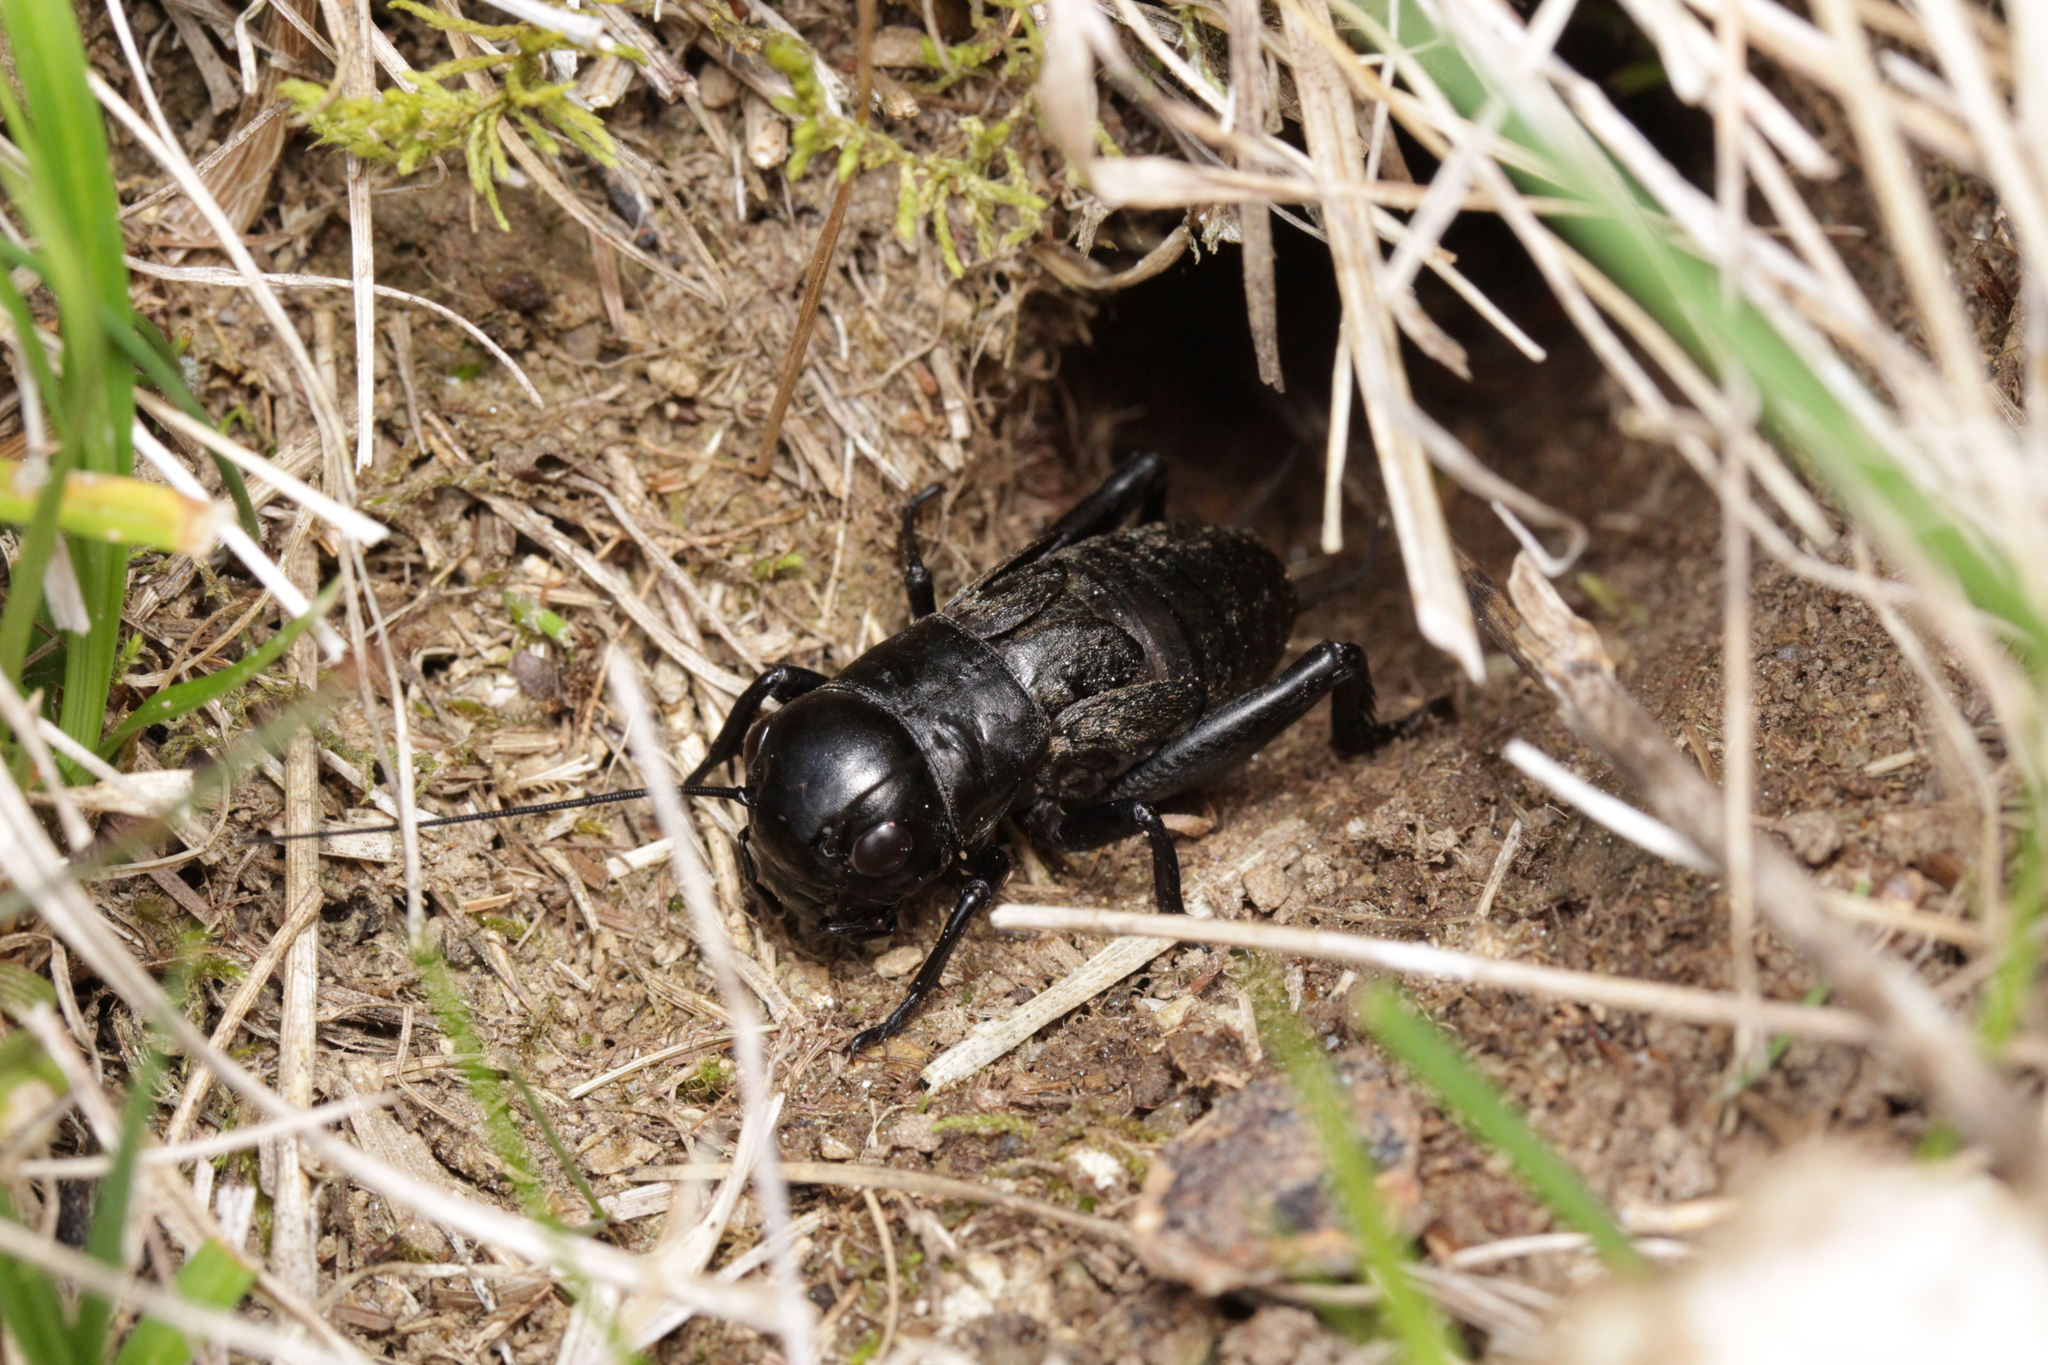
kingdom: Animalia
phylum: Arthropoda
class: Insecta
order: Orthoptera
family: Gryllidae
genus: Gryllus
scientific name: Gryllus campestris
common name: Field cricket
